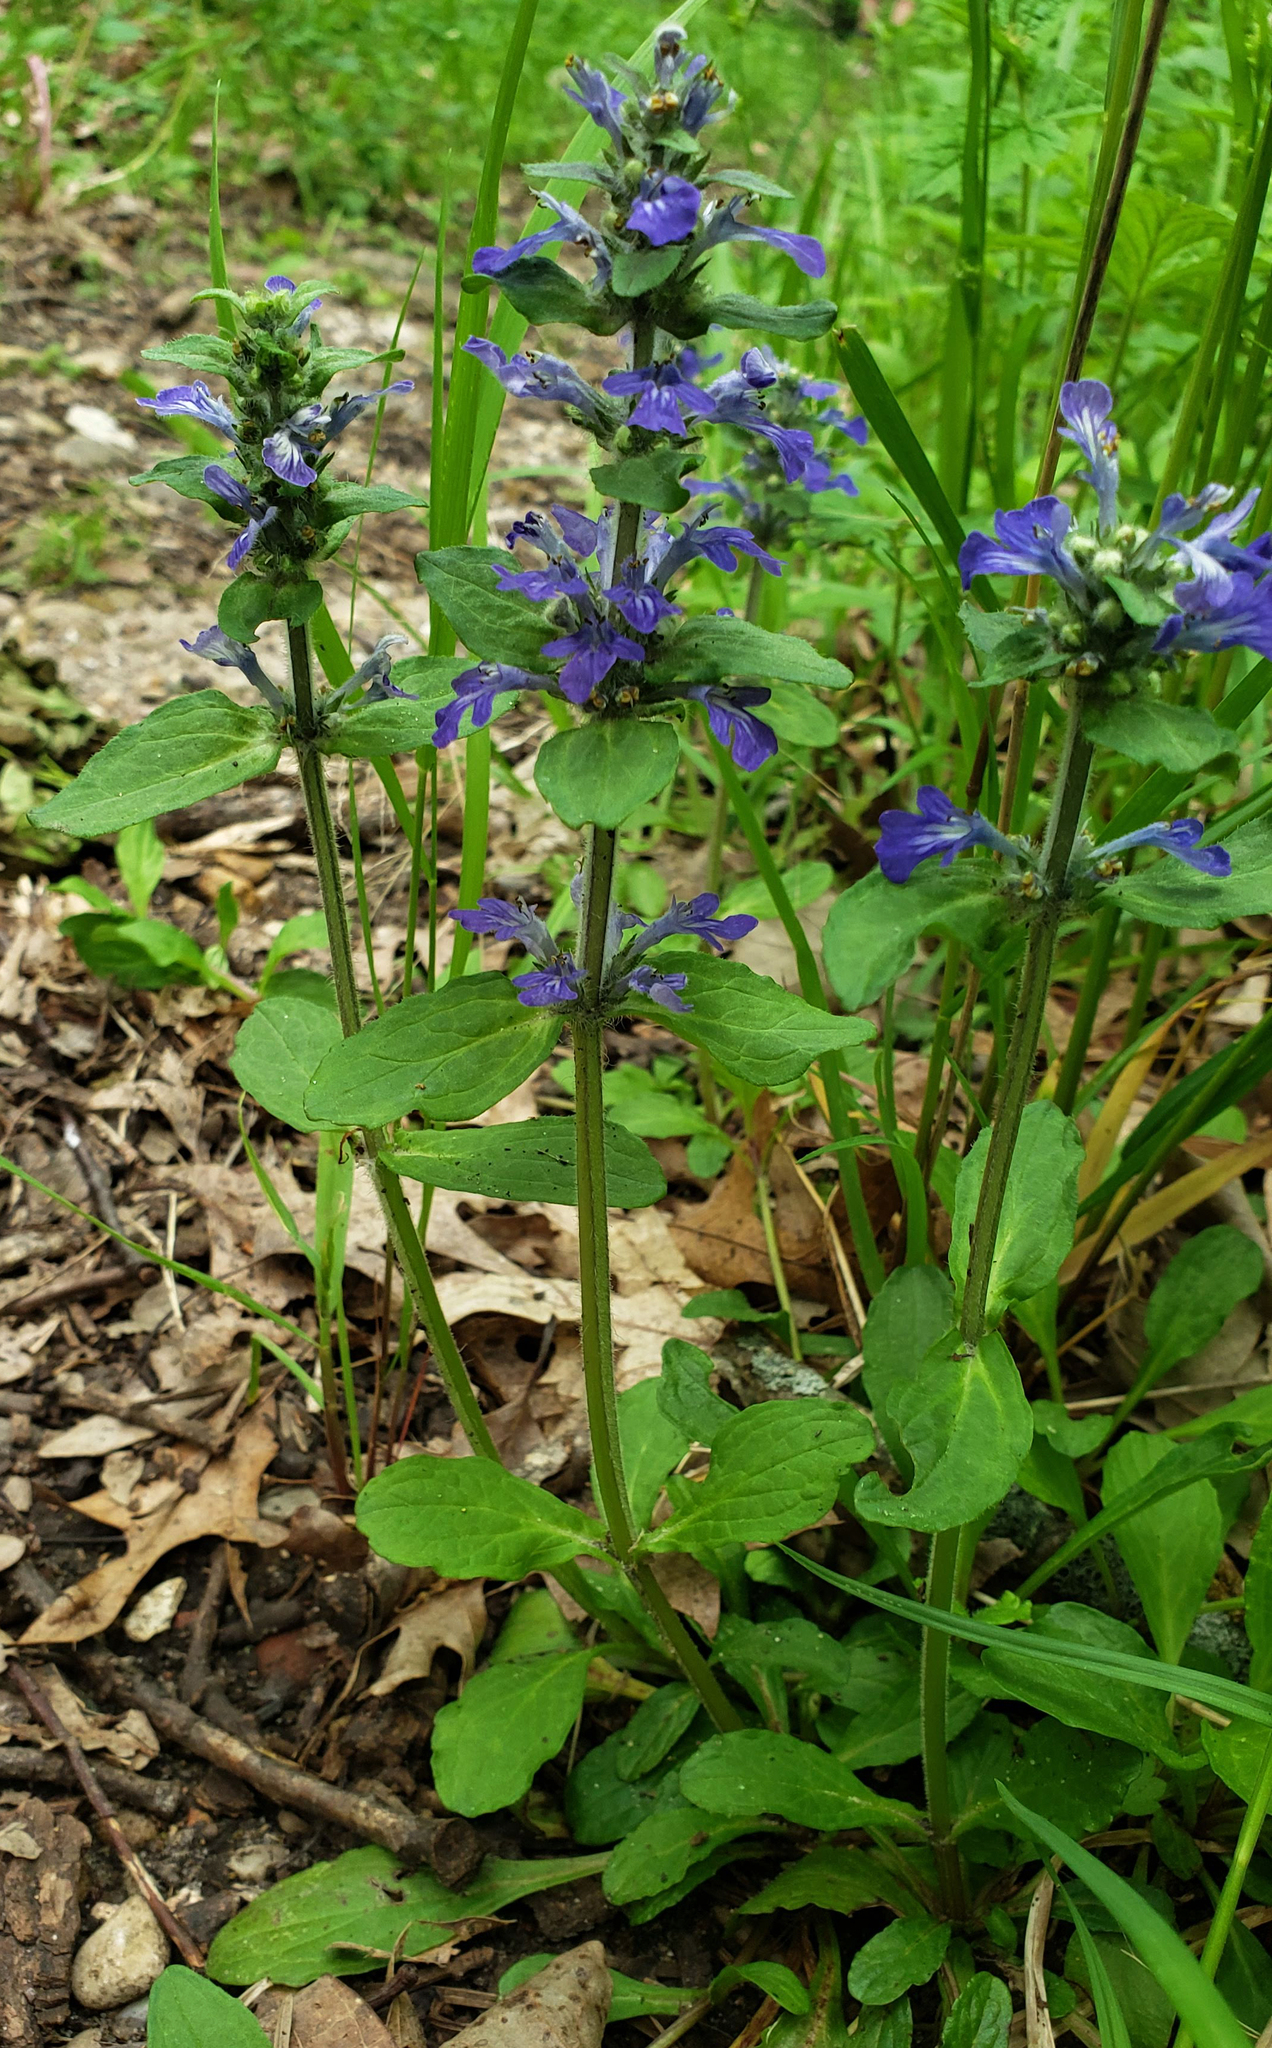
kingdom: Plantae
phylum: Tracheophyta
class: Magnoliopsida
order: Lamiales
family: Lamiaceae
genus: Ajuga
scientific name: Ajuga reptans
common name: Bugle
